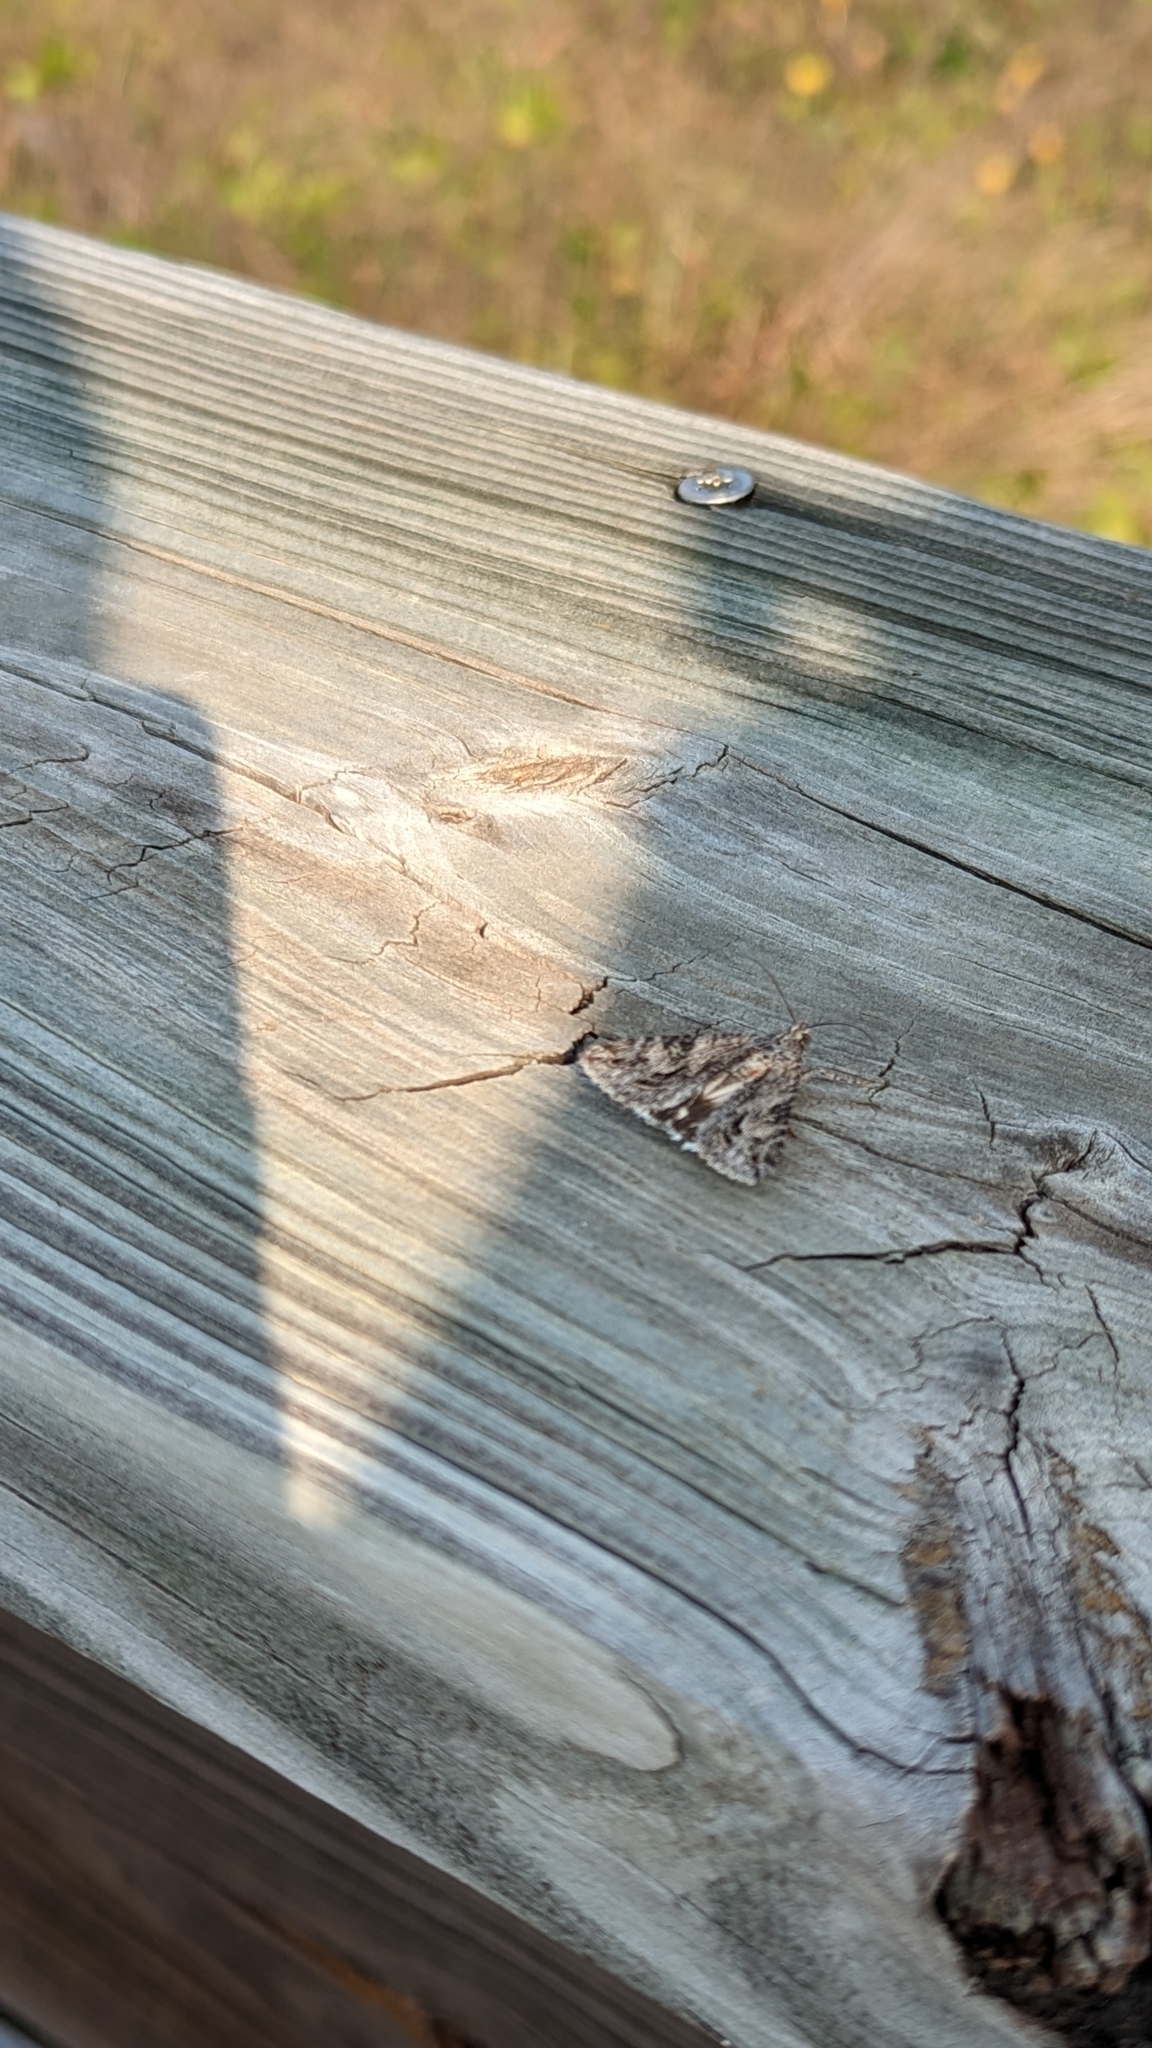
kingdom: Animalia
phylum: Arthropoda
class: Insecta
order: Lepidoptera
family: Erebidae
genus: Melipotis
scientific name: Melipotis jucunda
